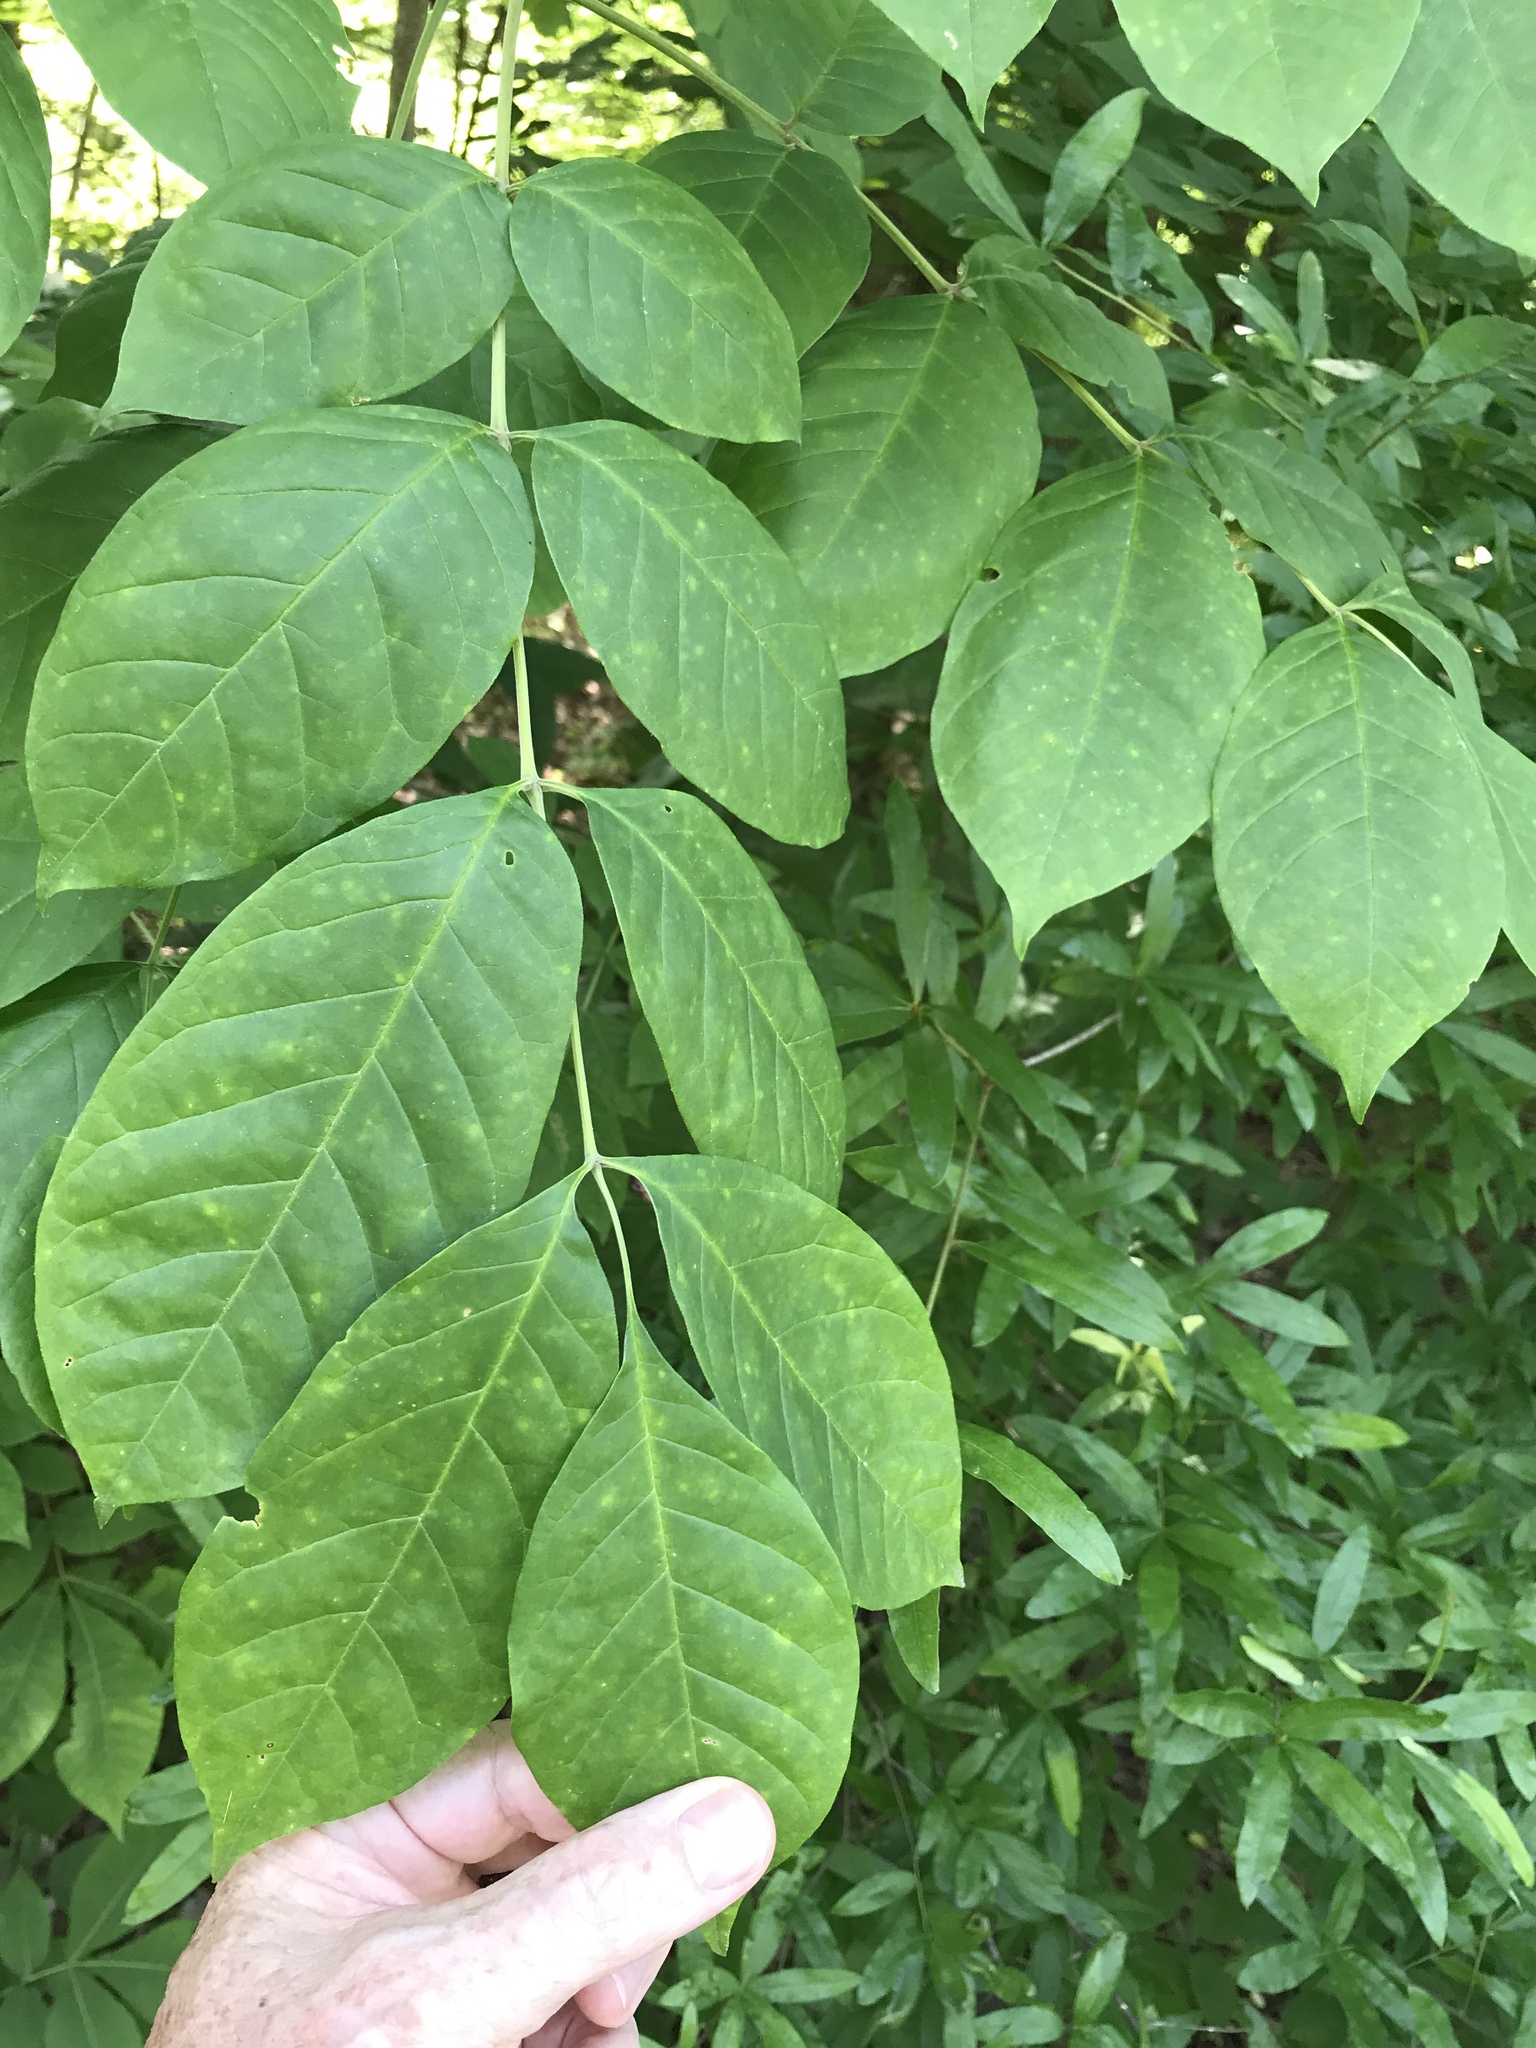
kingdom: Plantae
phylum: Tracheophyta
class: Magnoliopsida
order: Lamiales
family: Oleaceae
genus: Fraxinus
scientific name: Fraxinus americana
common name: White ash
